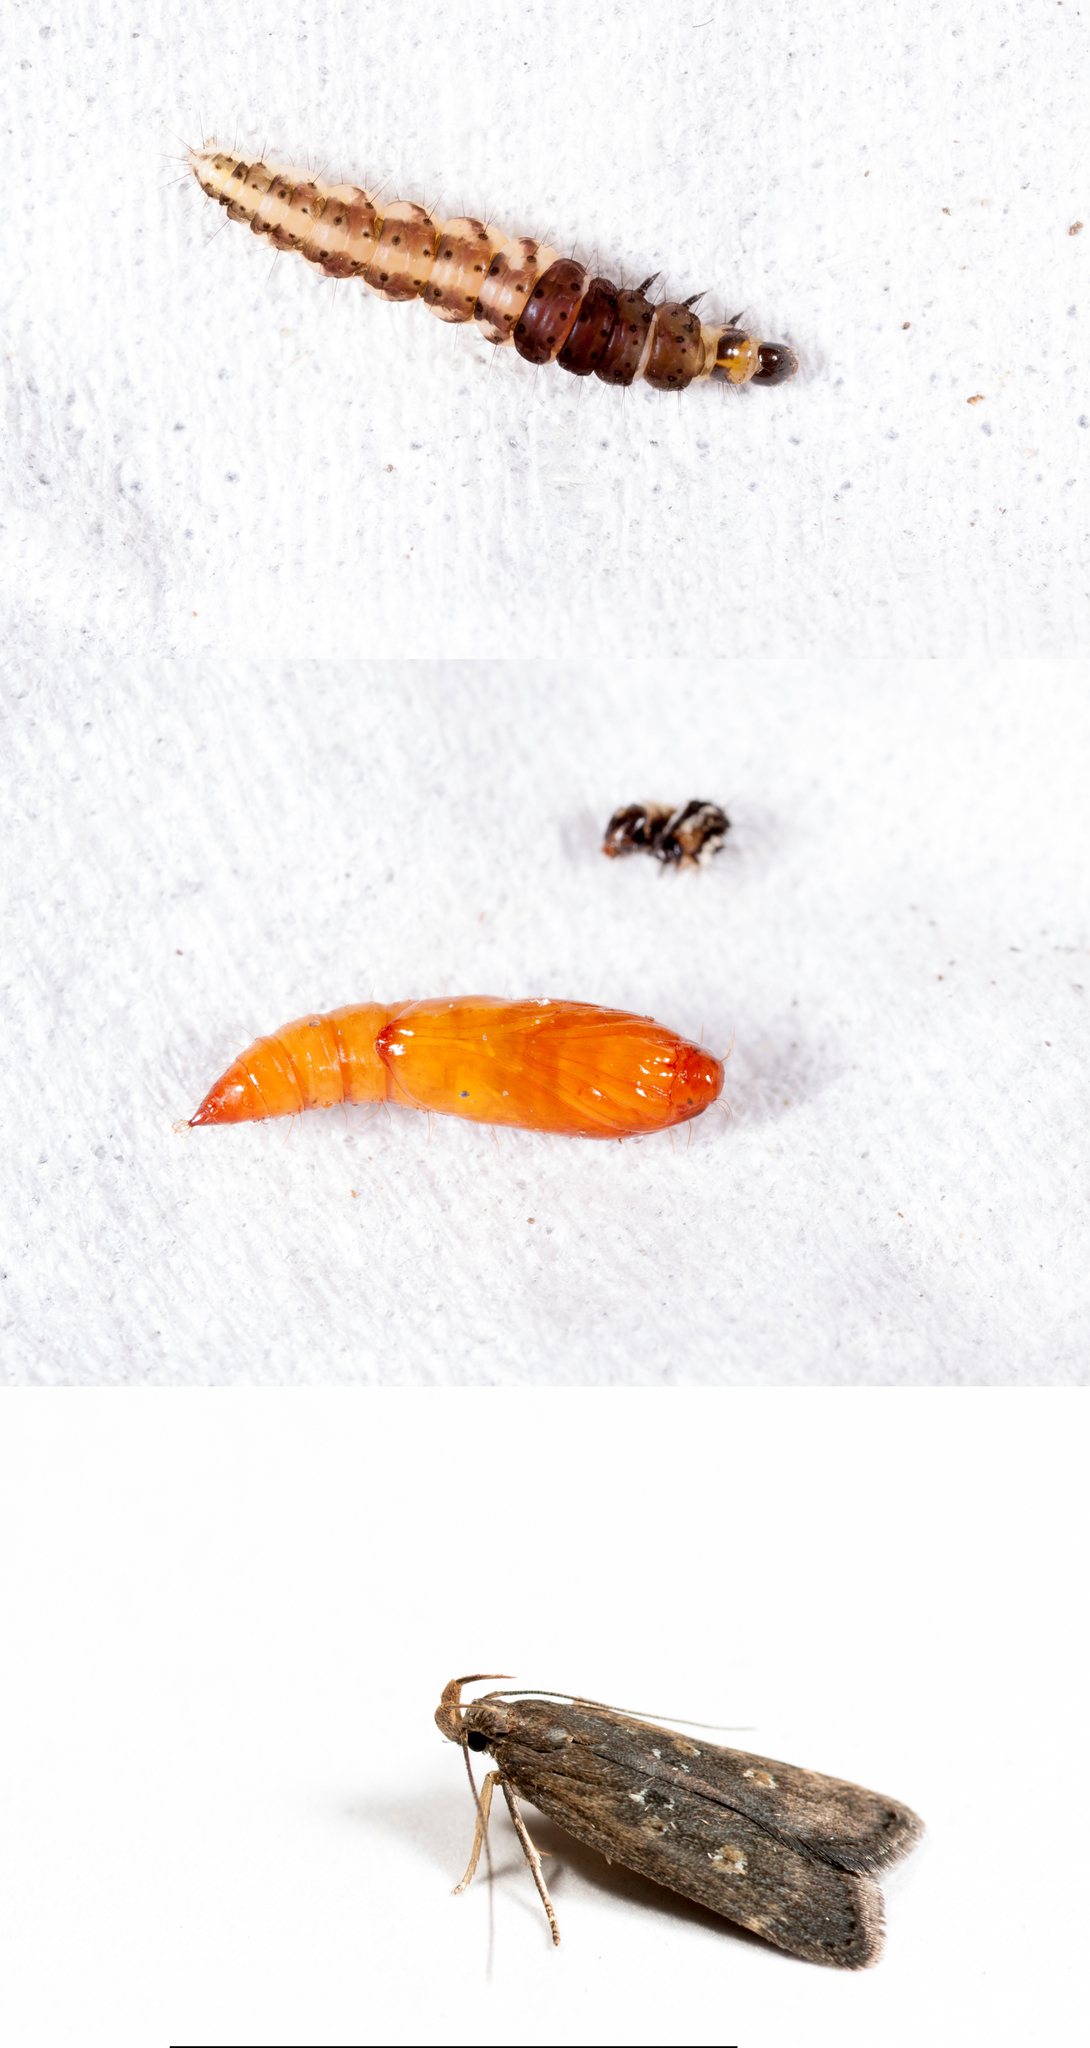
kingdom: Animalia
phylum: Arthropoda
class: Insecta
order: Lepidoptera
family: Gelechiidae
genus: Helcystogramma
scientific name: Helcystogramma triannulella
